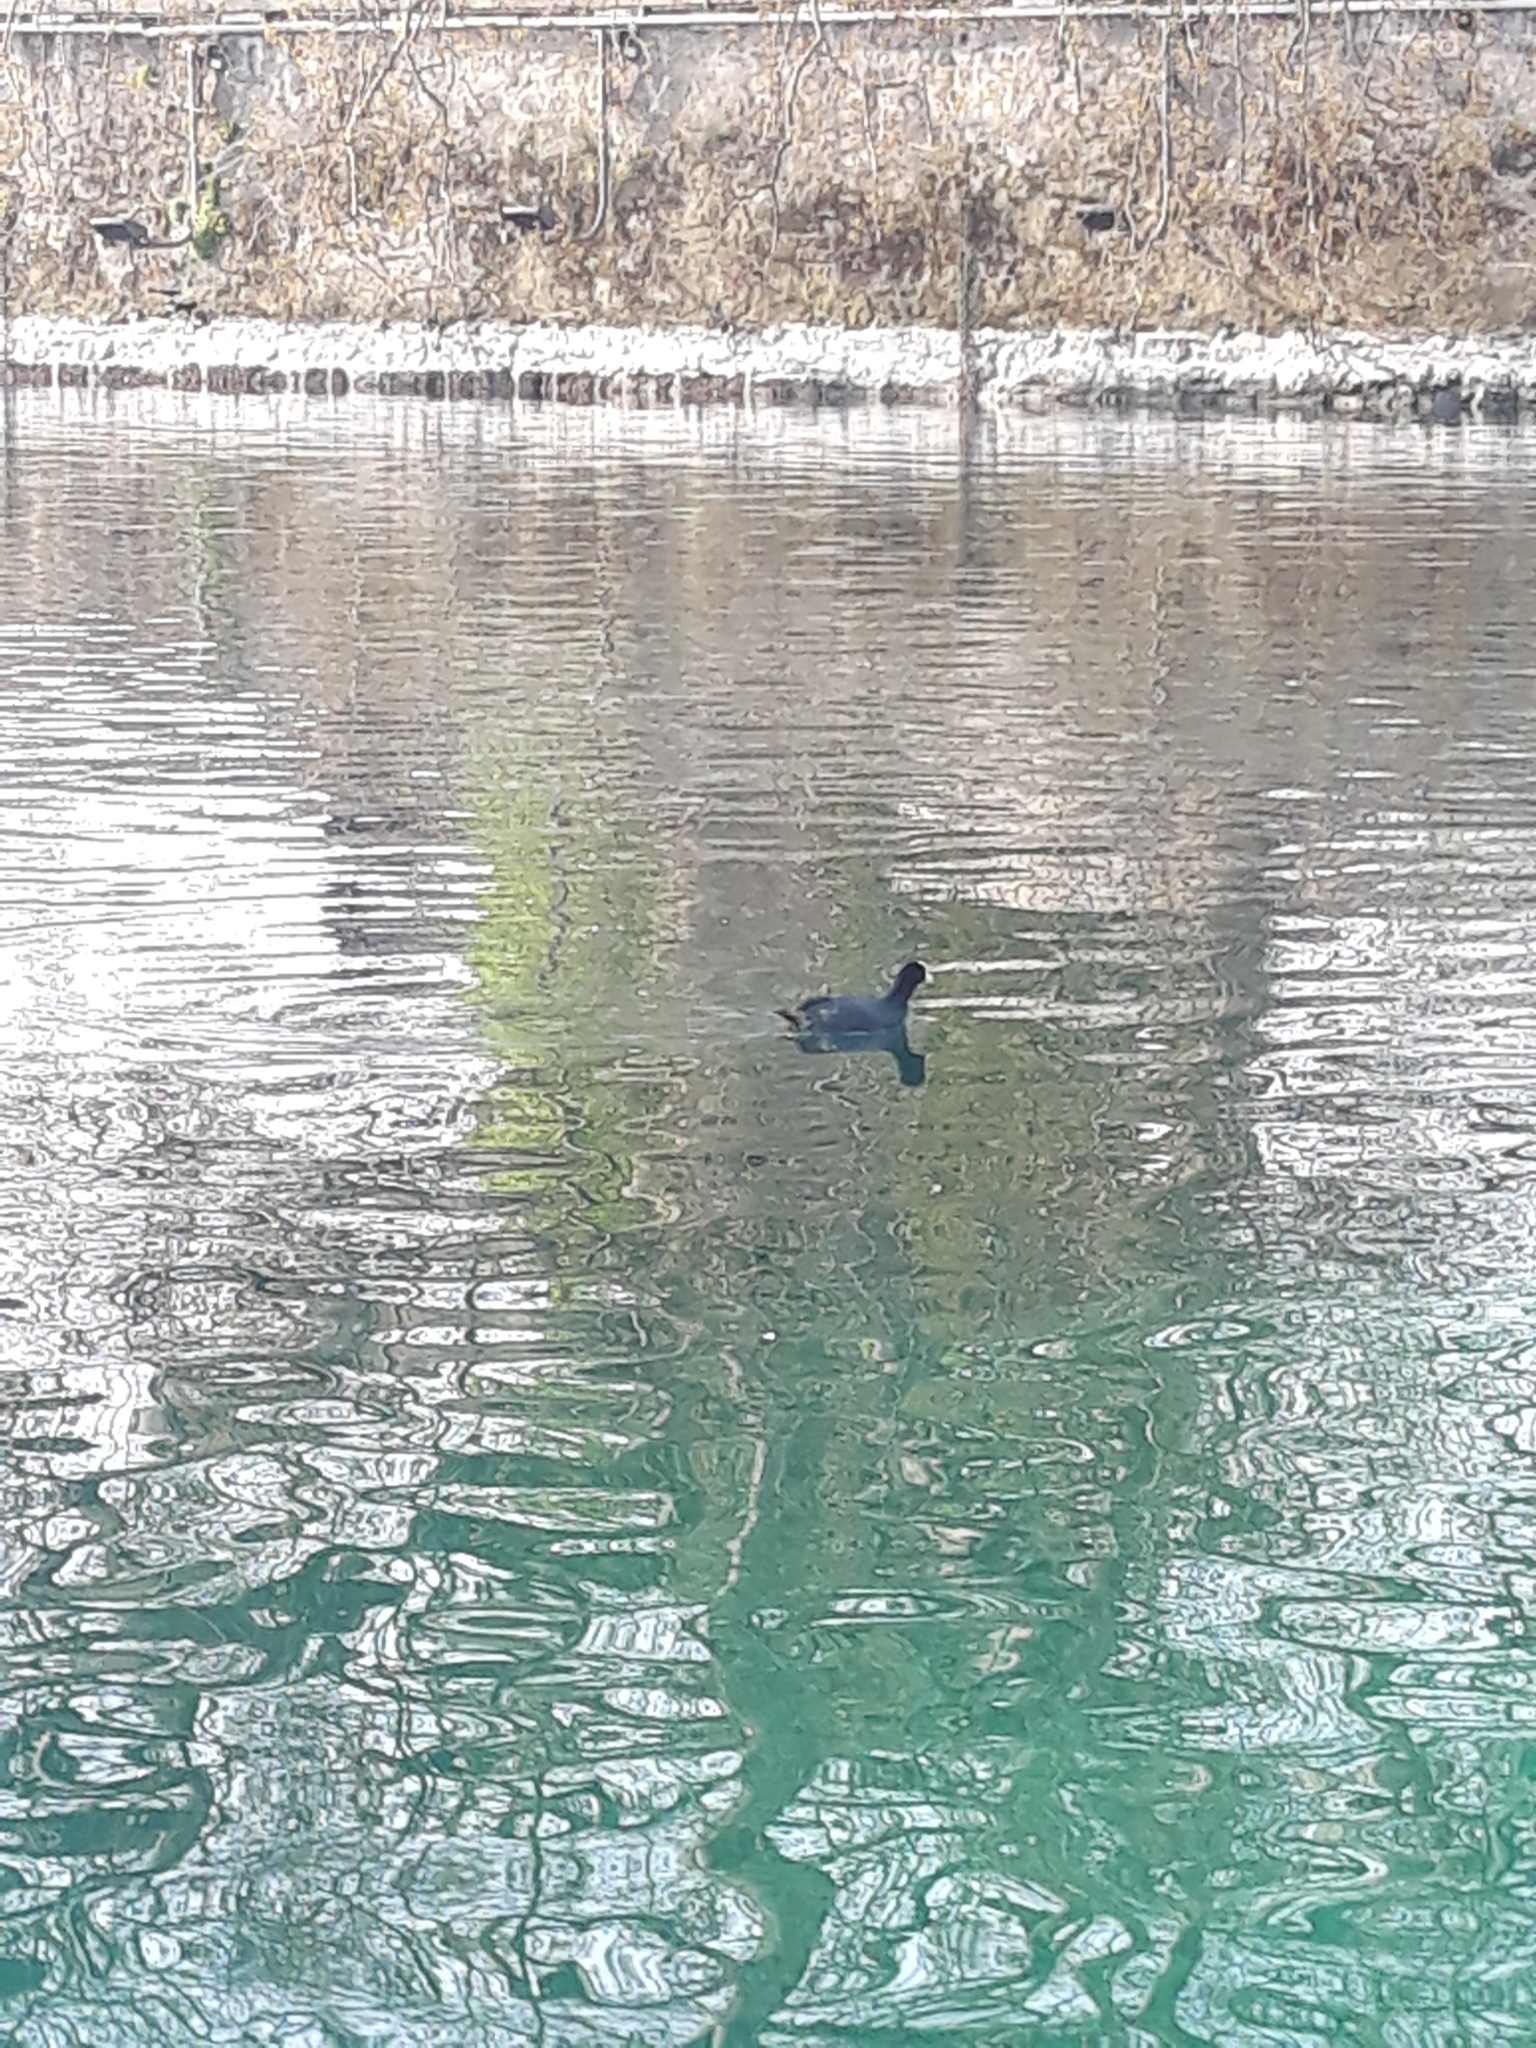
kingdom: Animalia
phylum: Chordata
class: Aves
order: Gruiformes
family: Rallidae
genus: Fulica
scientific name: Fulica atra
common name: Eurasian coot
